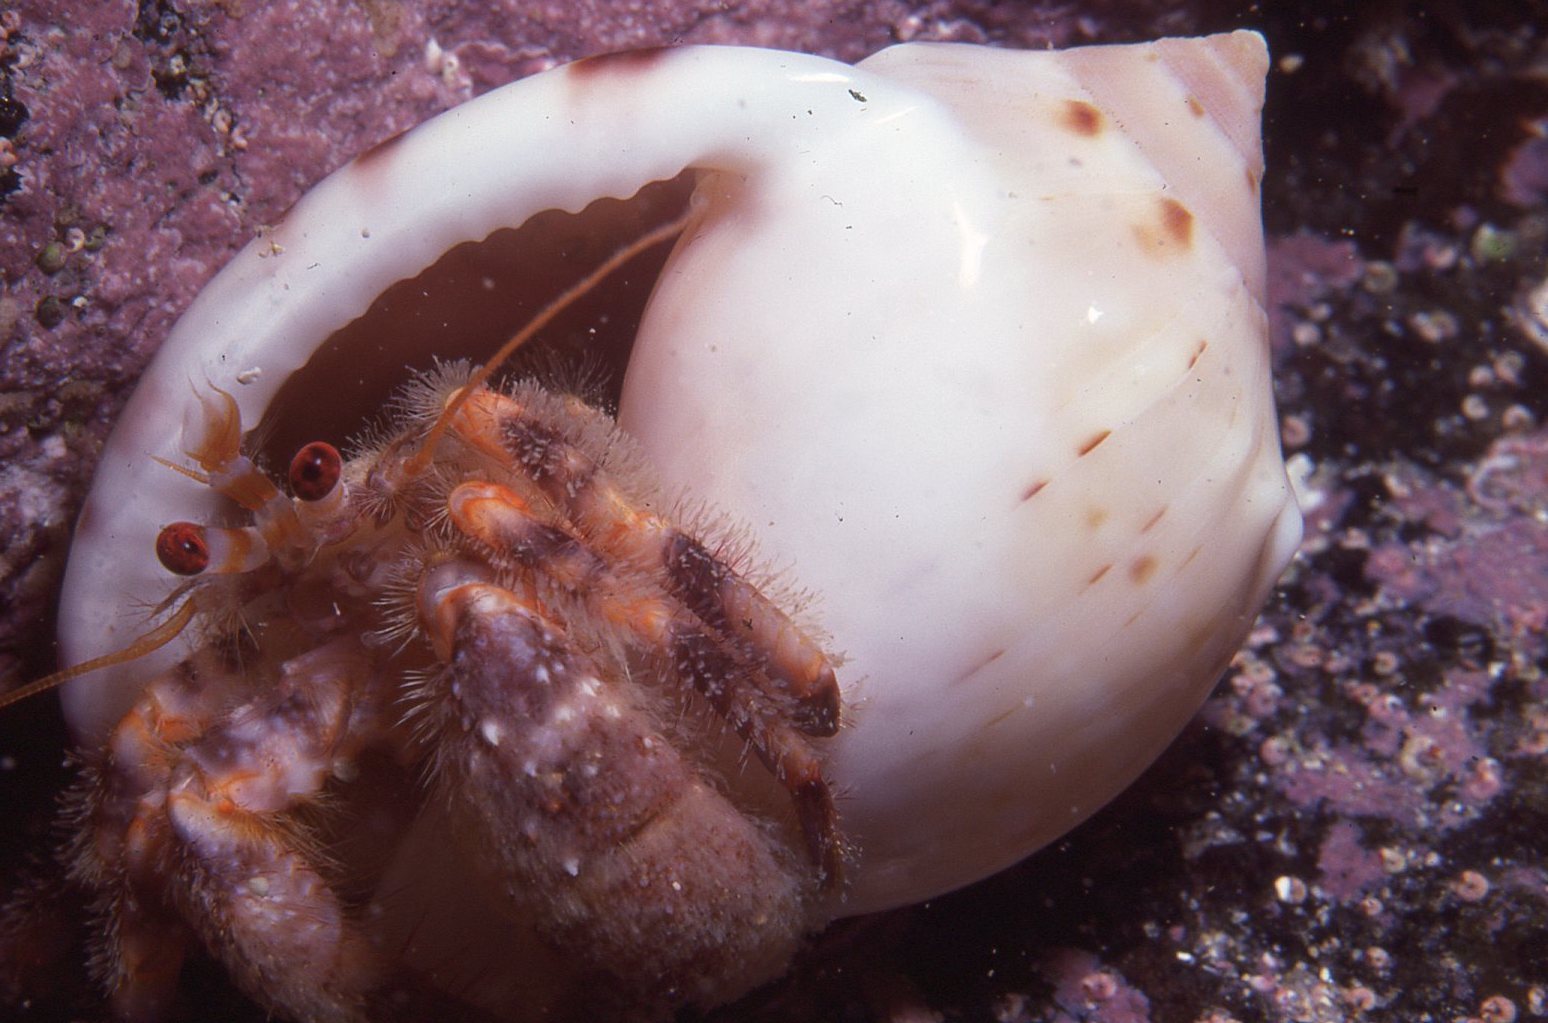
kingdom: Animalia
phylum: Arthropoda
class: Malacostraca
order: Decapoda
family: Paguridae
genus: Pagurus
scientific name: Pagurus sinuatus
